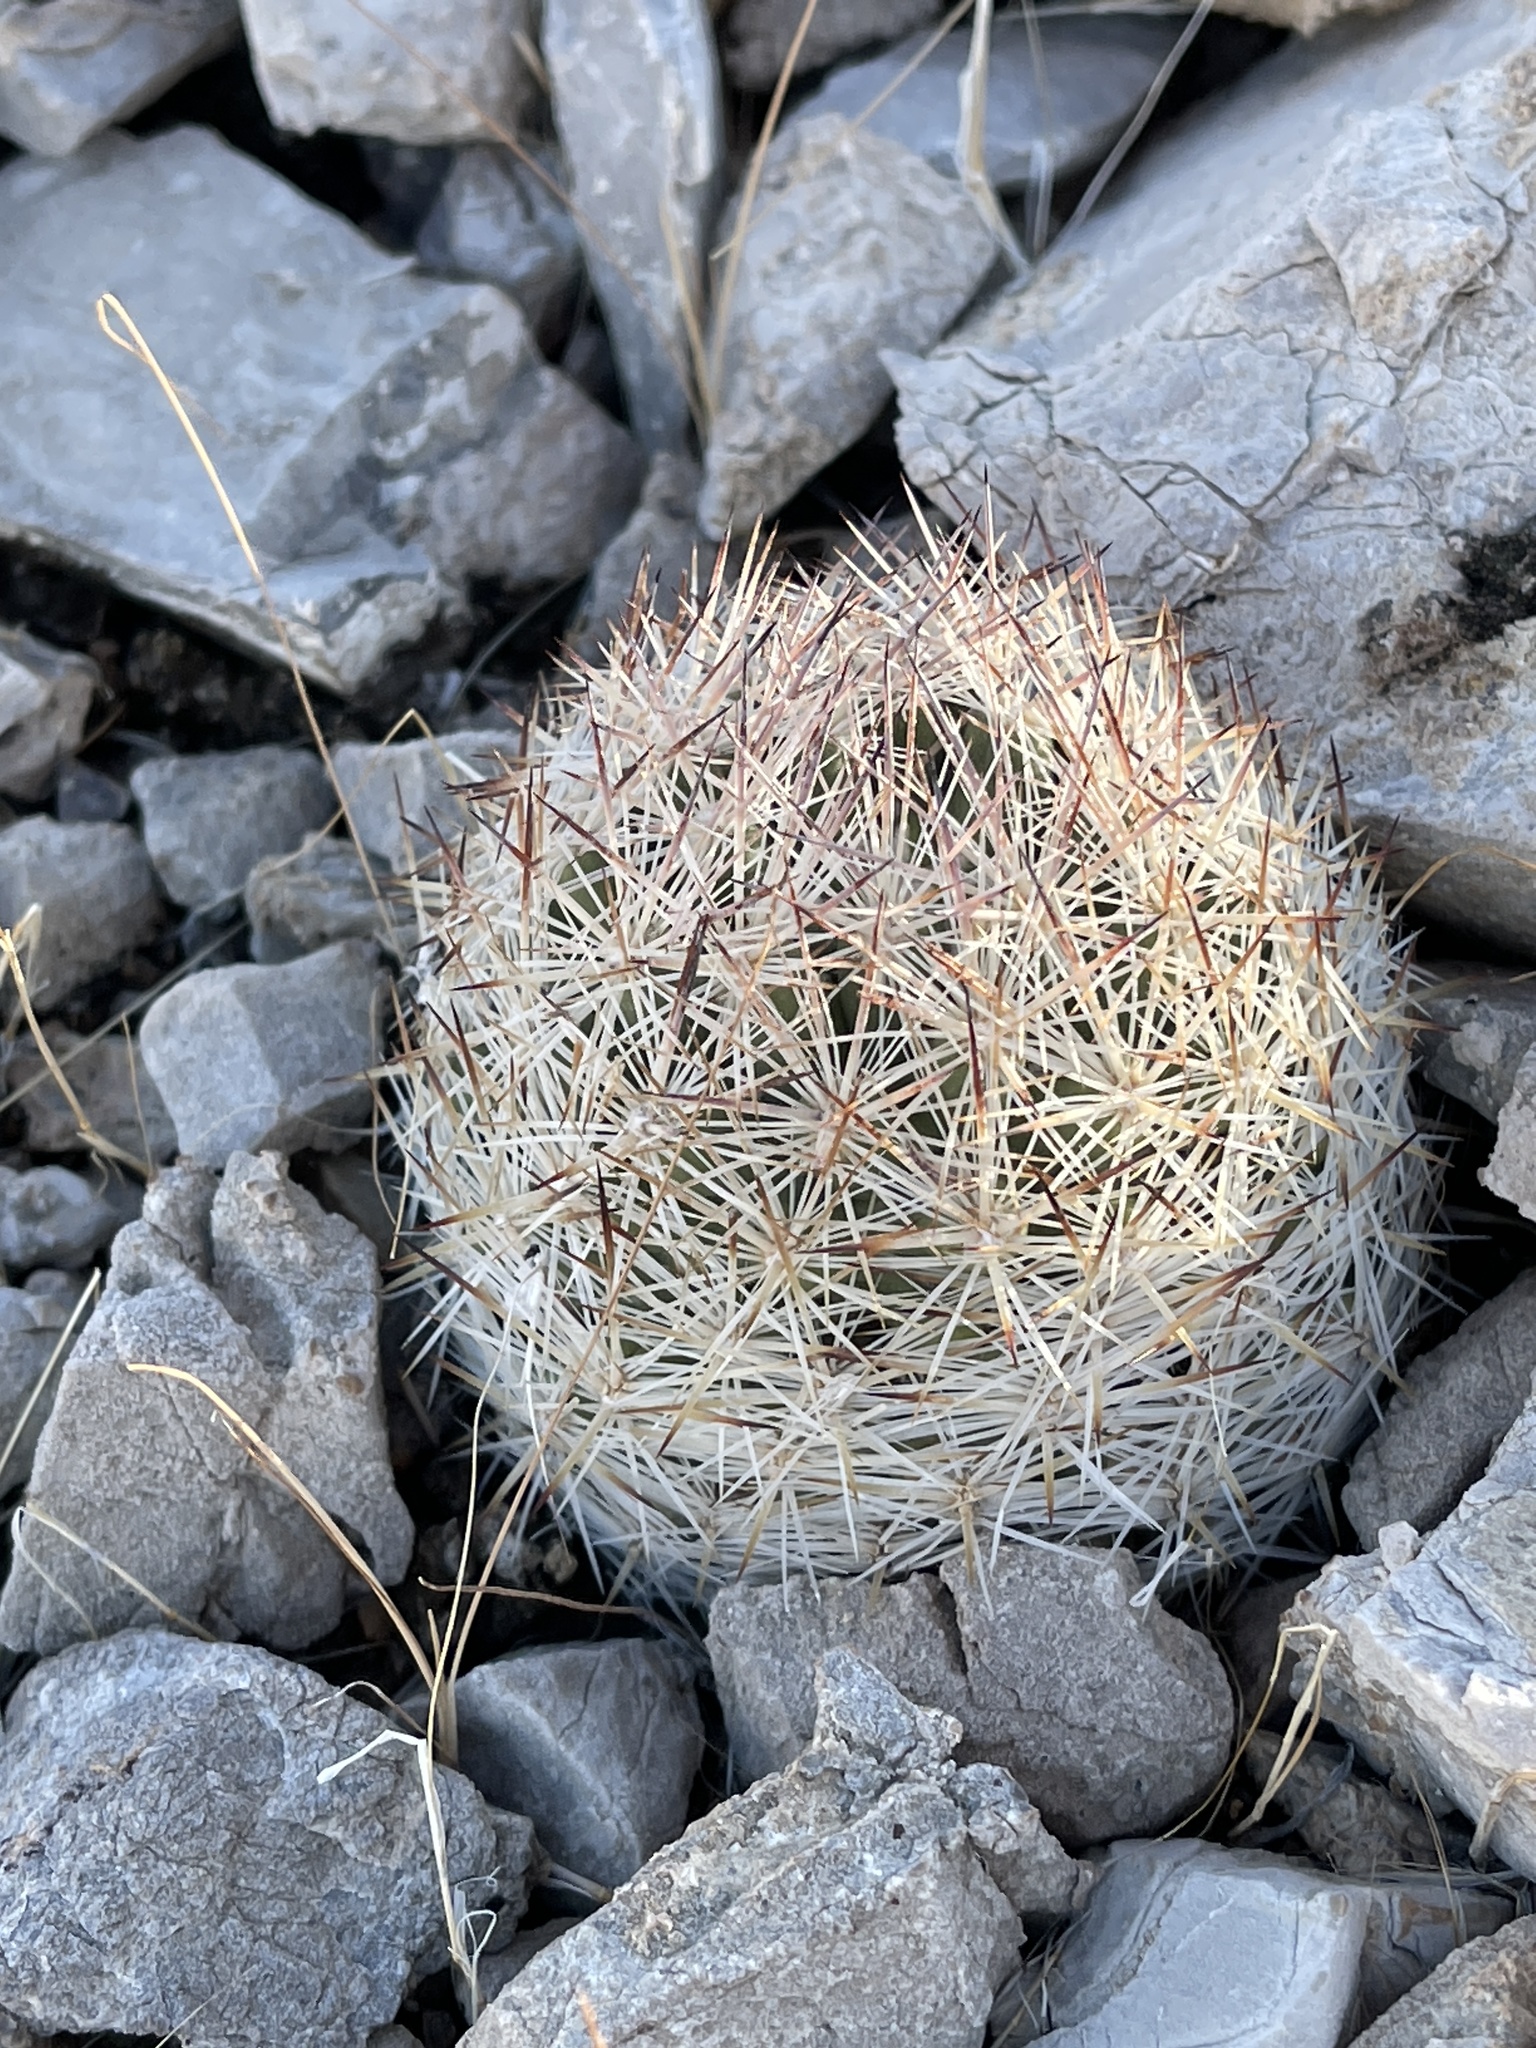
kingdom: Plantae
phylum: Tracheophyta
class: Magnoliopsida
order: Caryophyllales
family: Cactaceae
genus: Pelecyphora
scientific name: Pelecyphora dasyacantha
